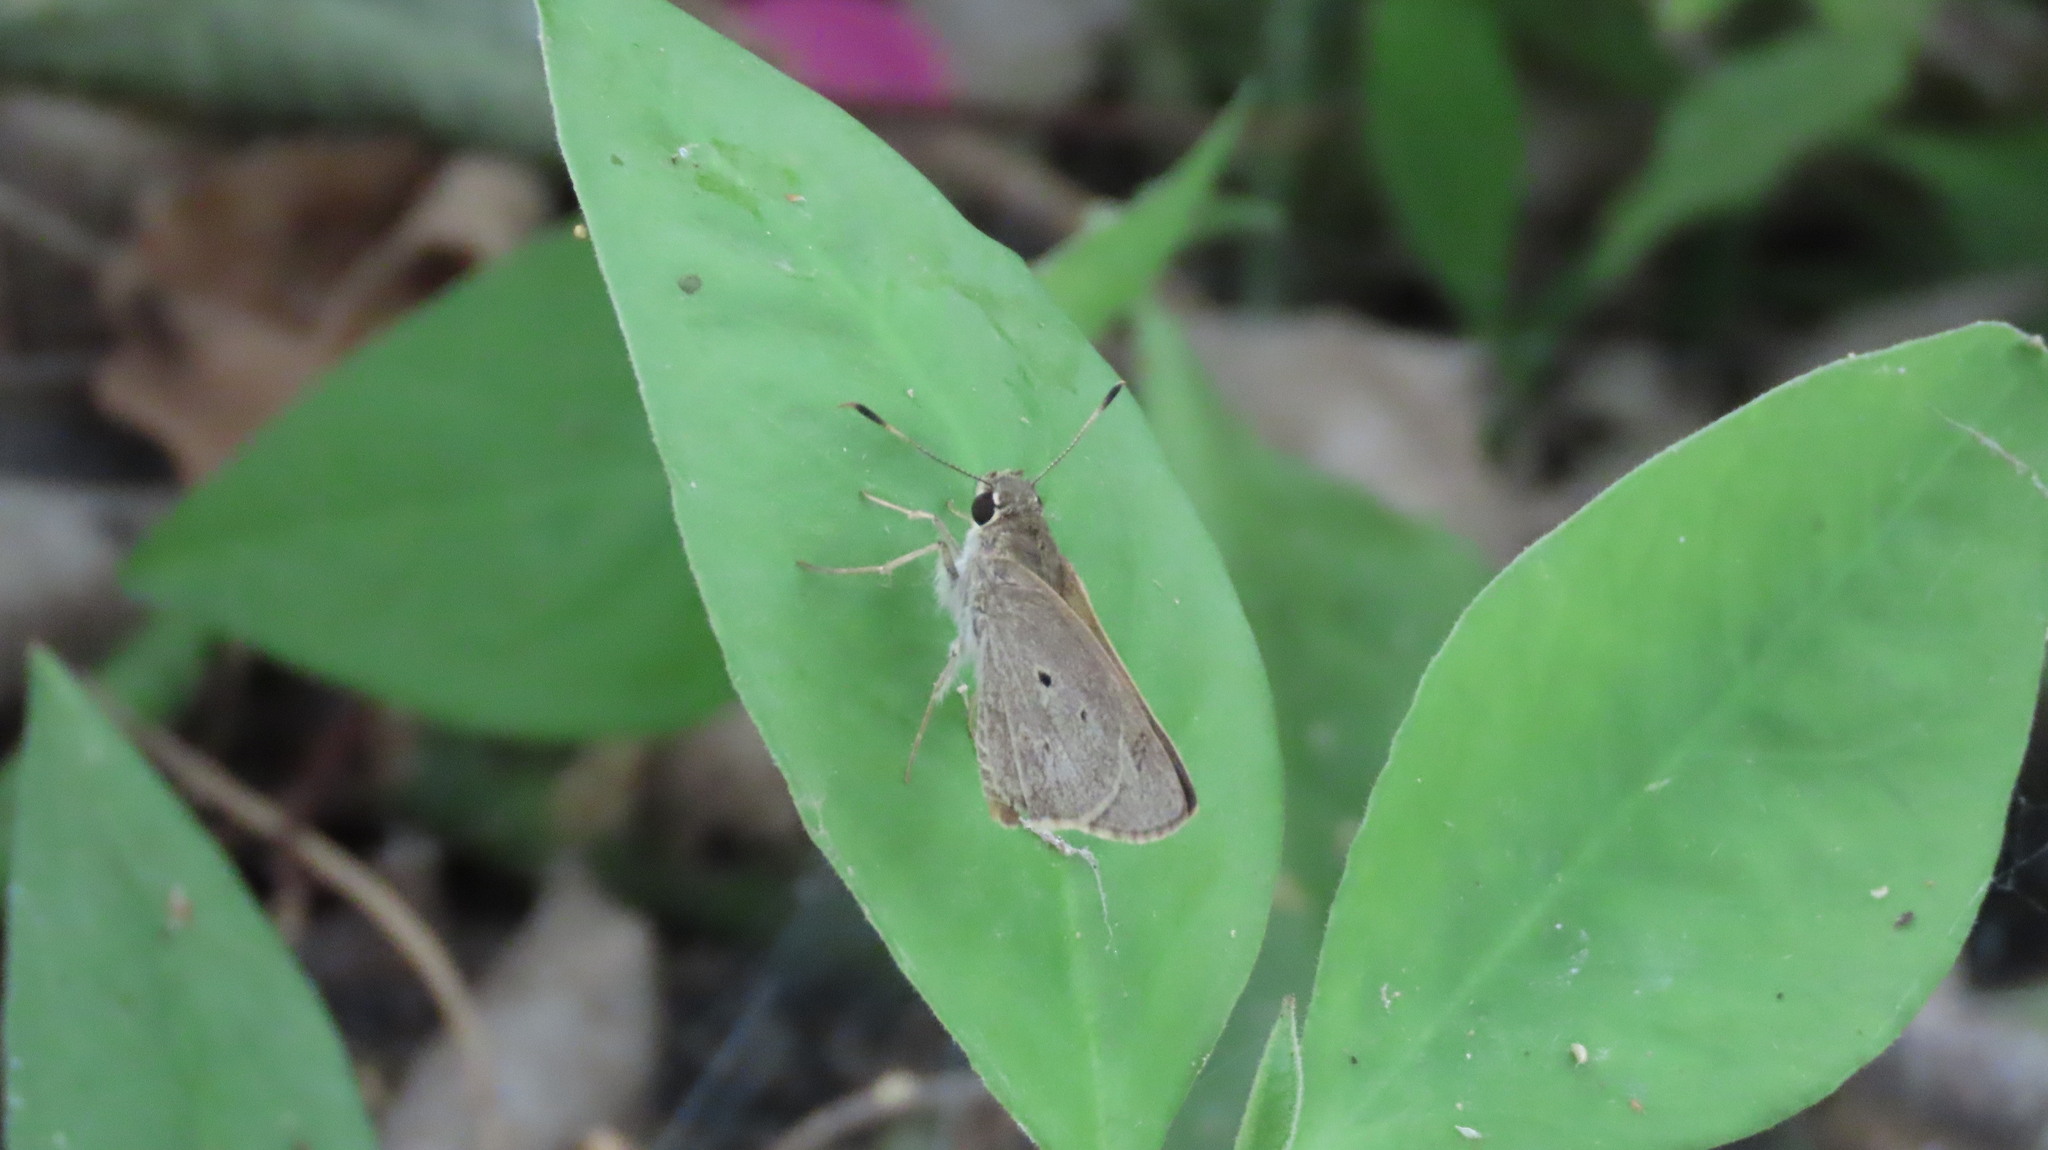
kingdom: Animalia
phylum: Arthropoda
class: Insecta
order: Lepidoptera
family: Hesperiidae
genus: Suastus
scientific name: Suastus gremius
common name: Indian palm bob
